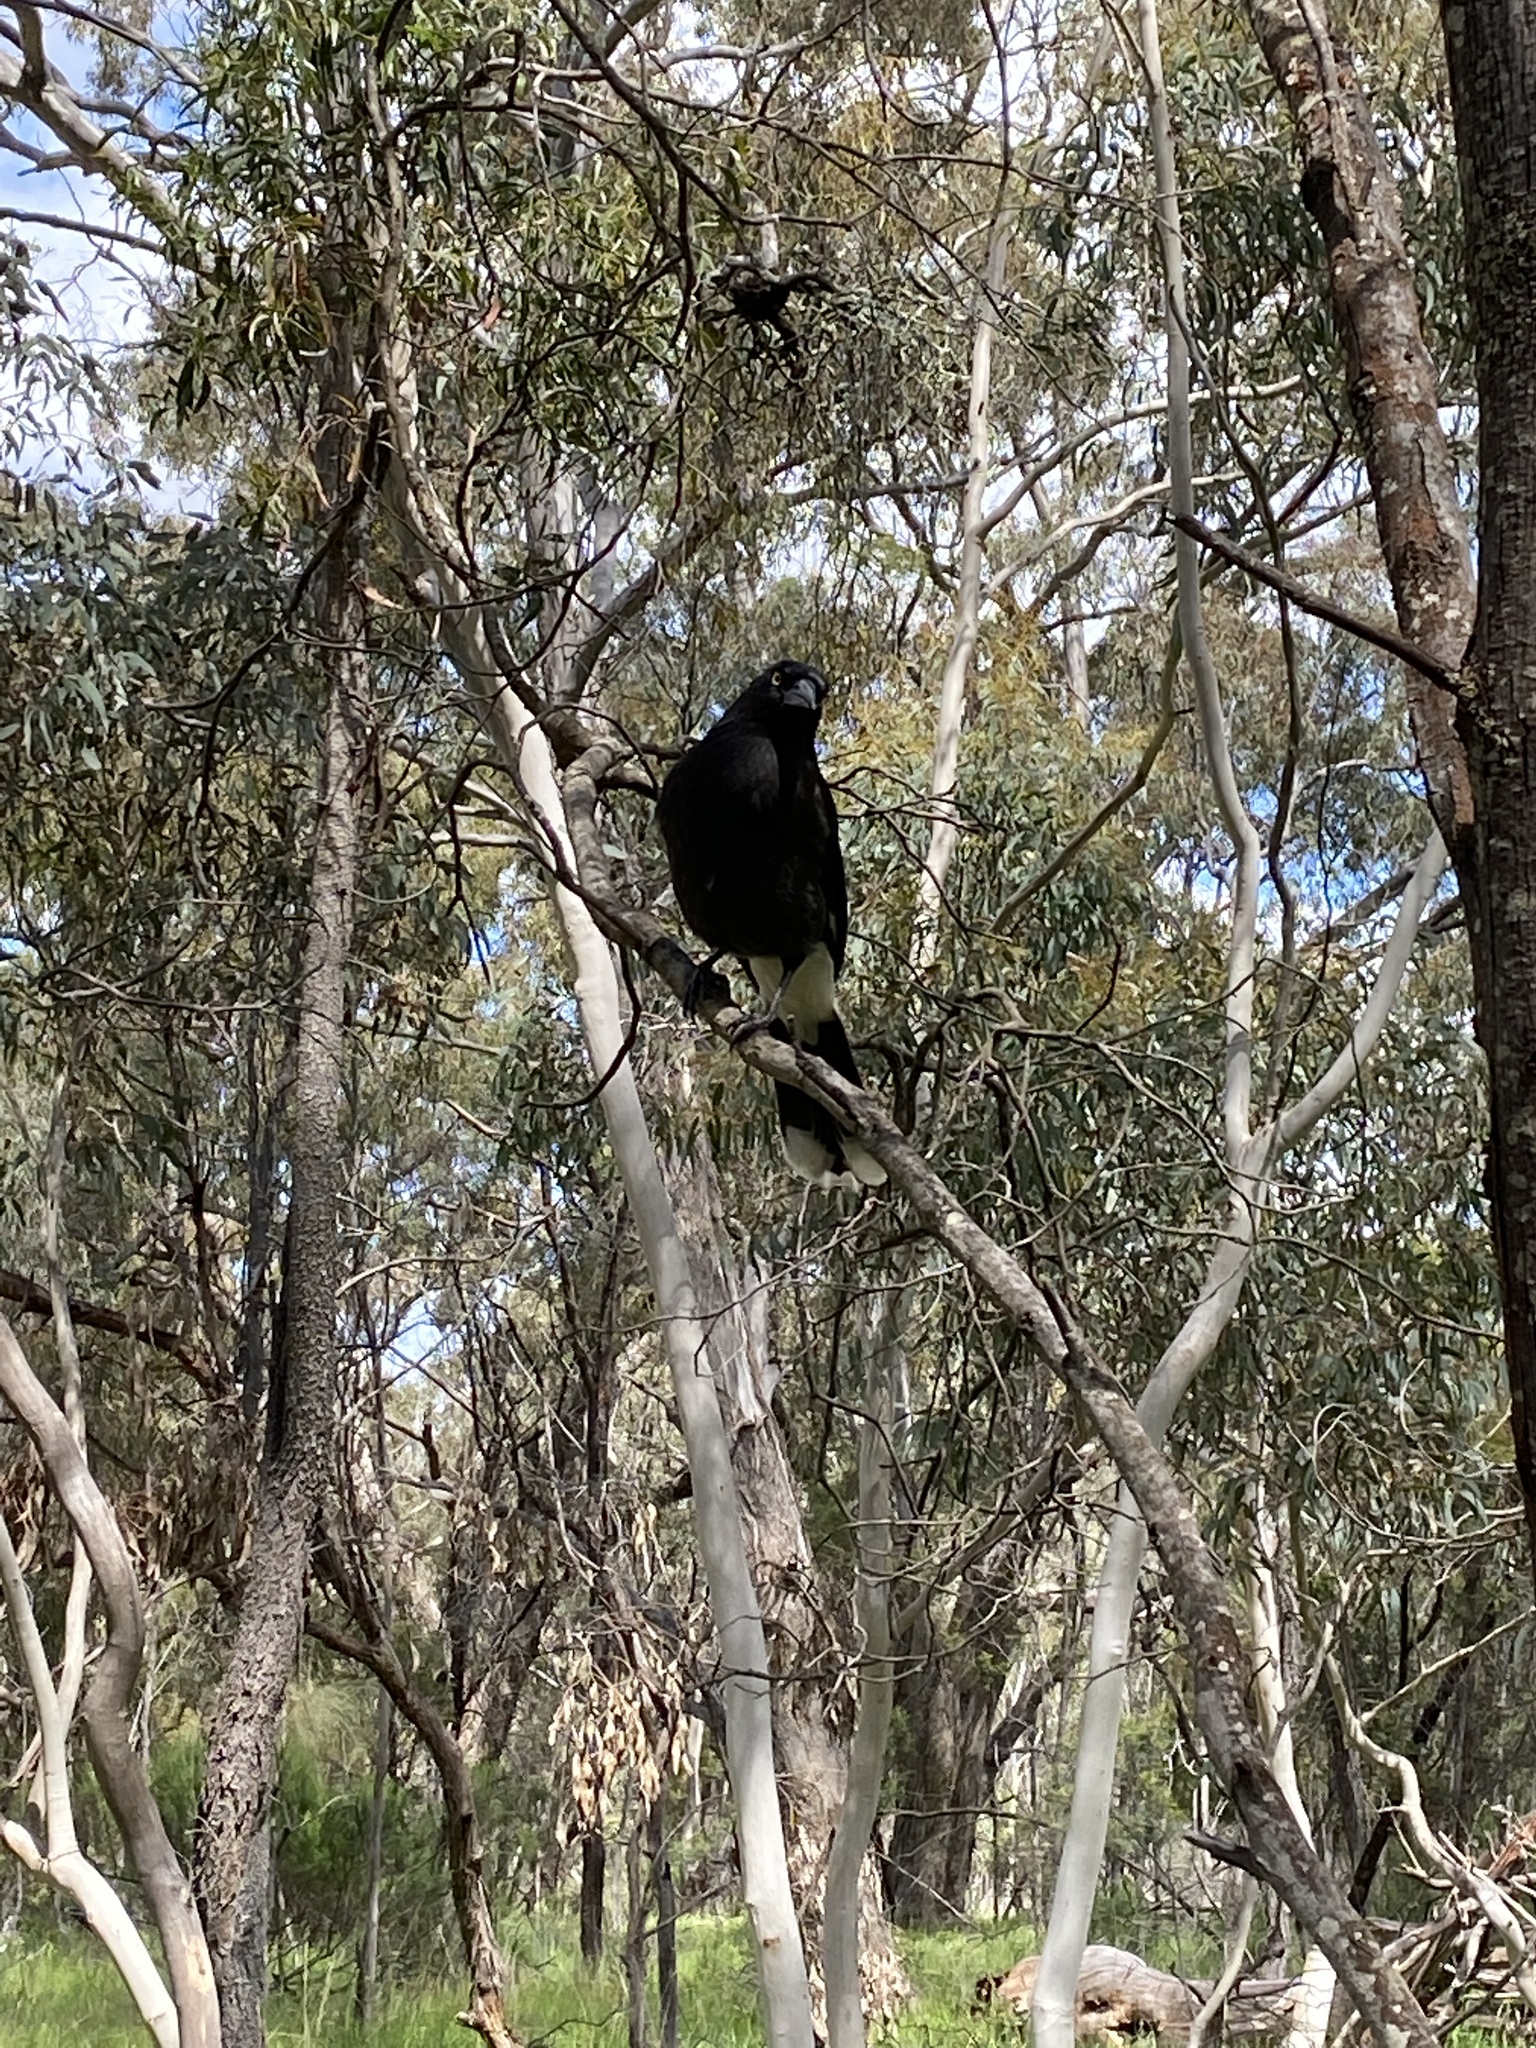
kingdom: Animalia
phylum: Chordata
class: Aves
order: Passeriformes
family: Cracticidae
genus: Strepera
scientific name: Strepera graculina
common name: Pied currawong
